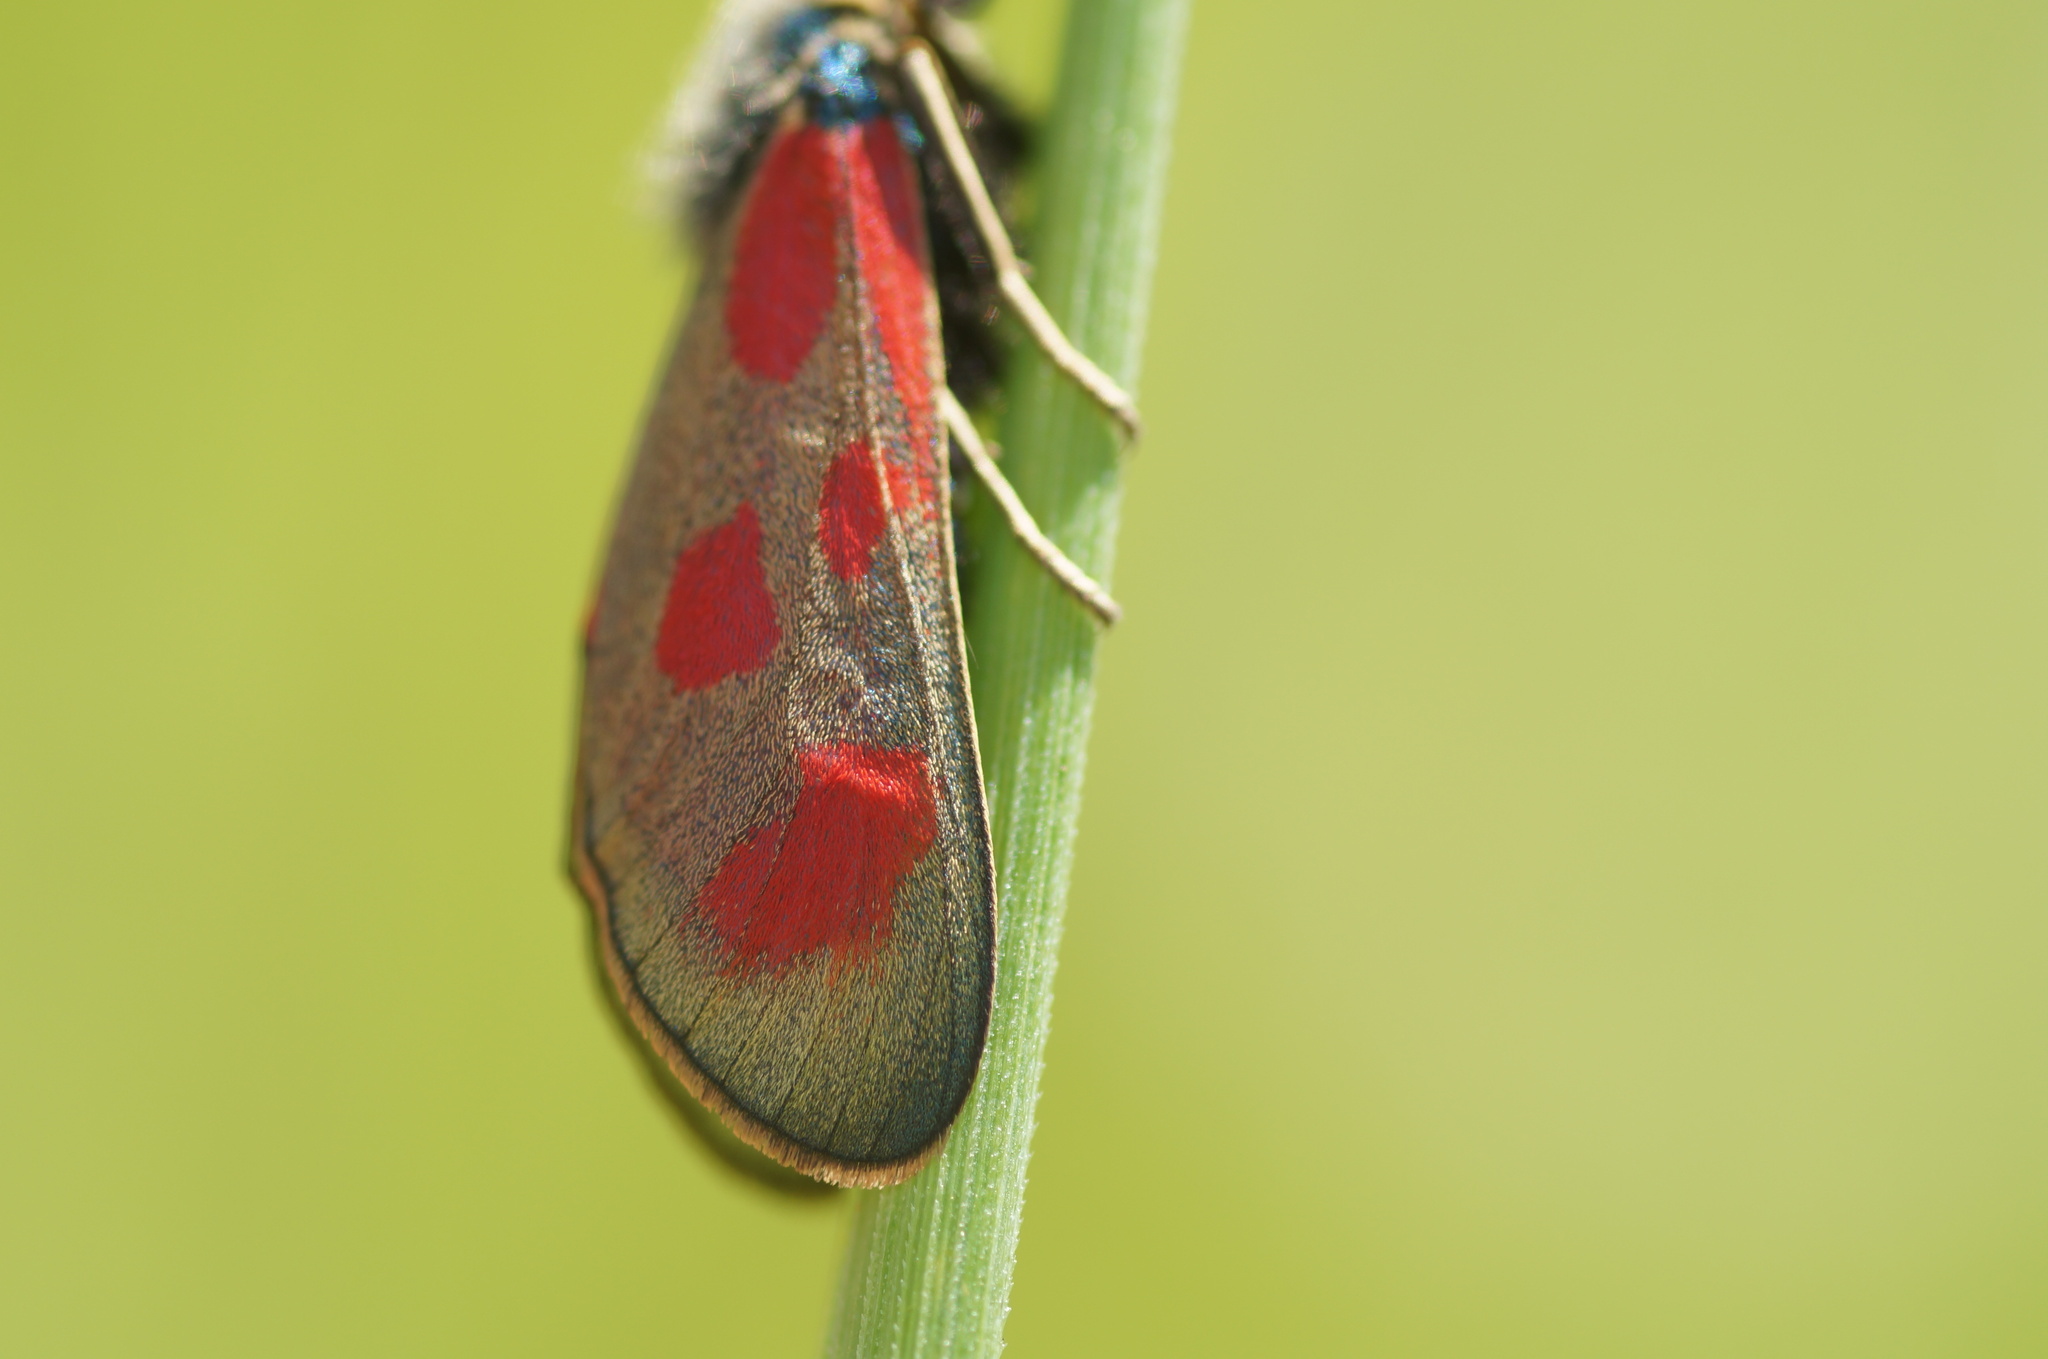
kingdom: Animalia
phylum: Arthropoda
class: Insecta
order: Lepidoptera
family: Zygaenidae
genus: Zygaena
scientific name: Zygaena loti
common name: Slender scotch burnet
